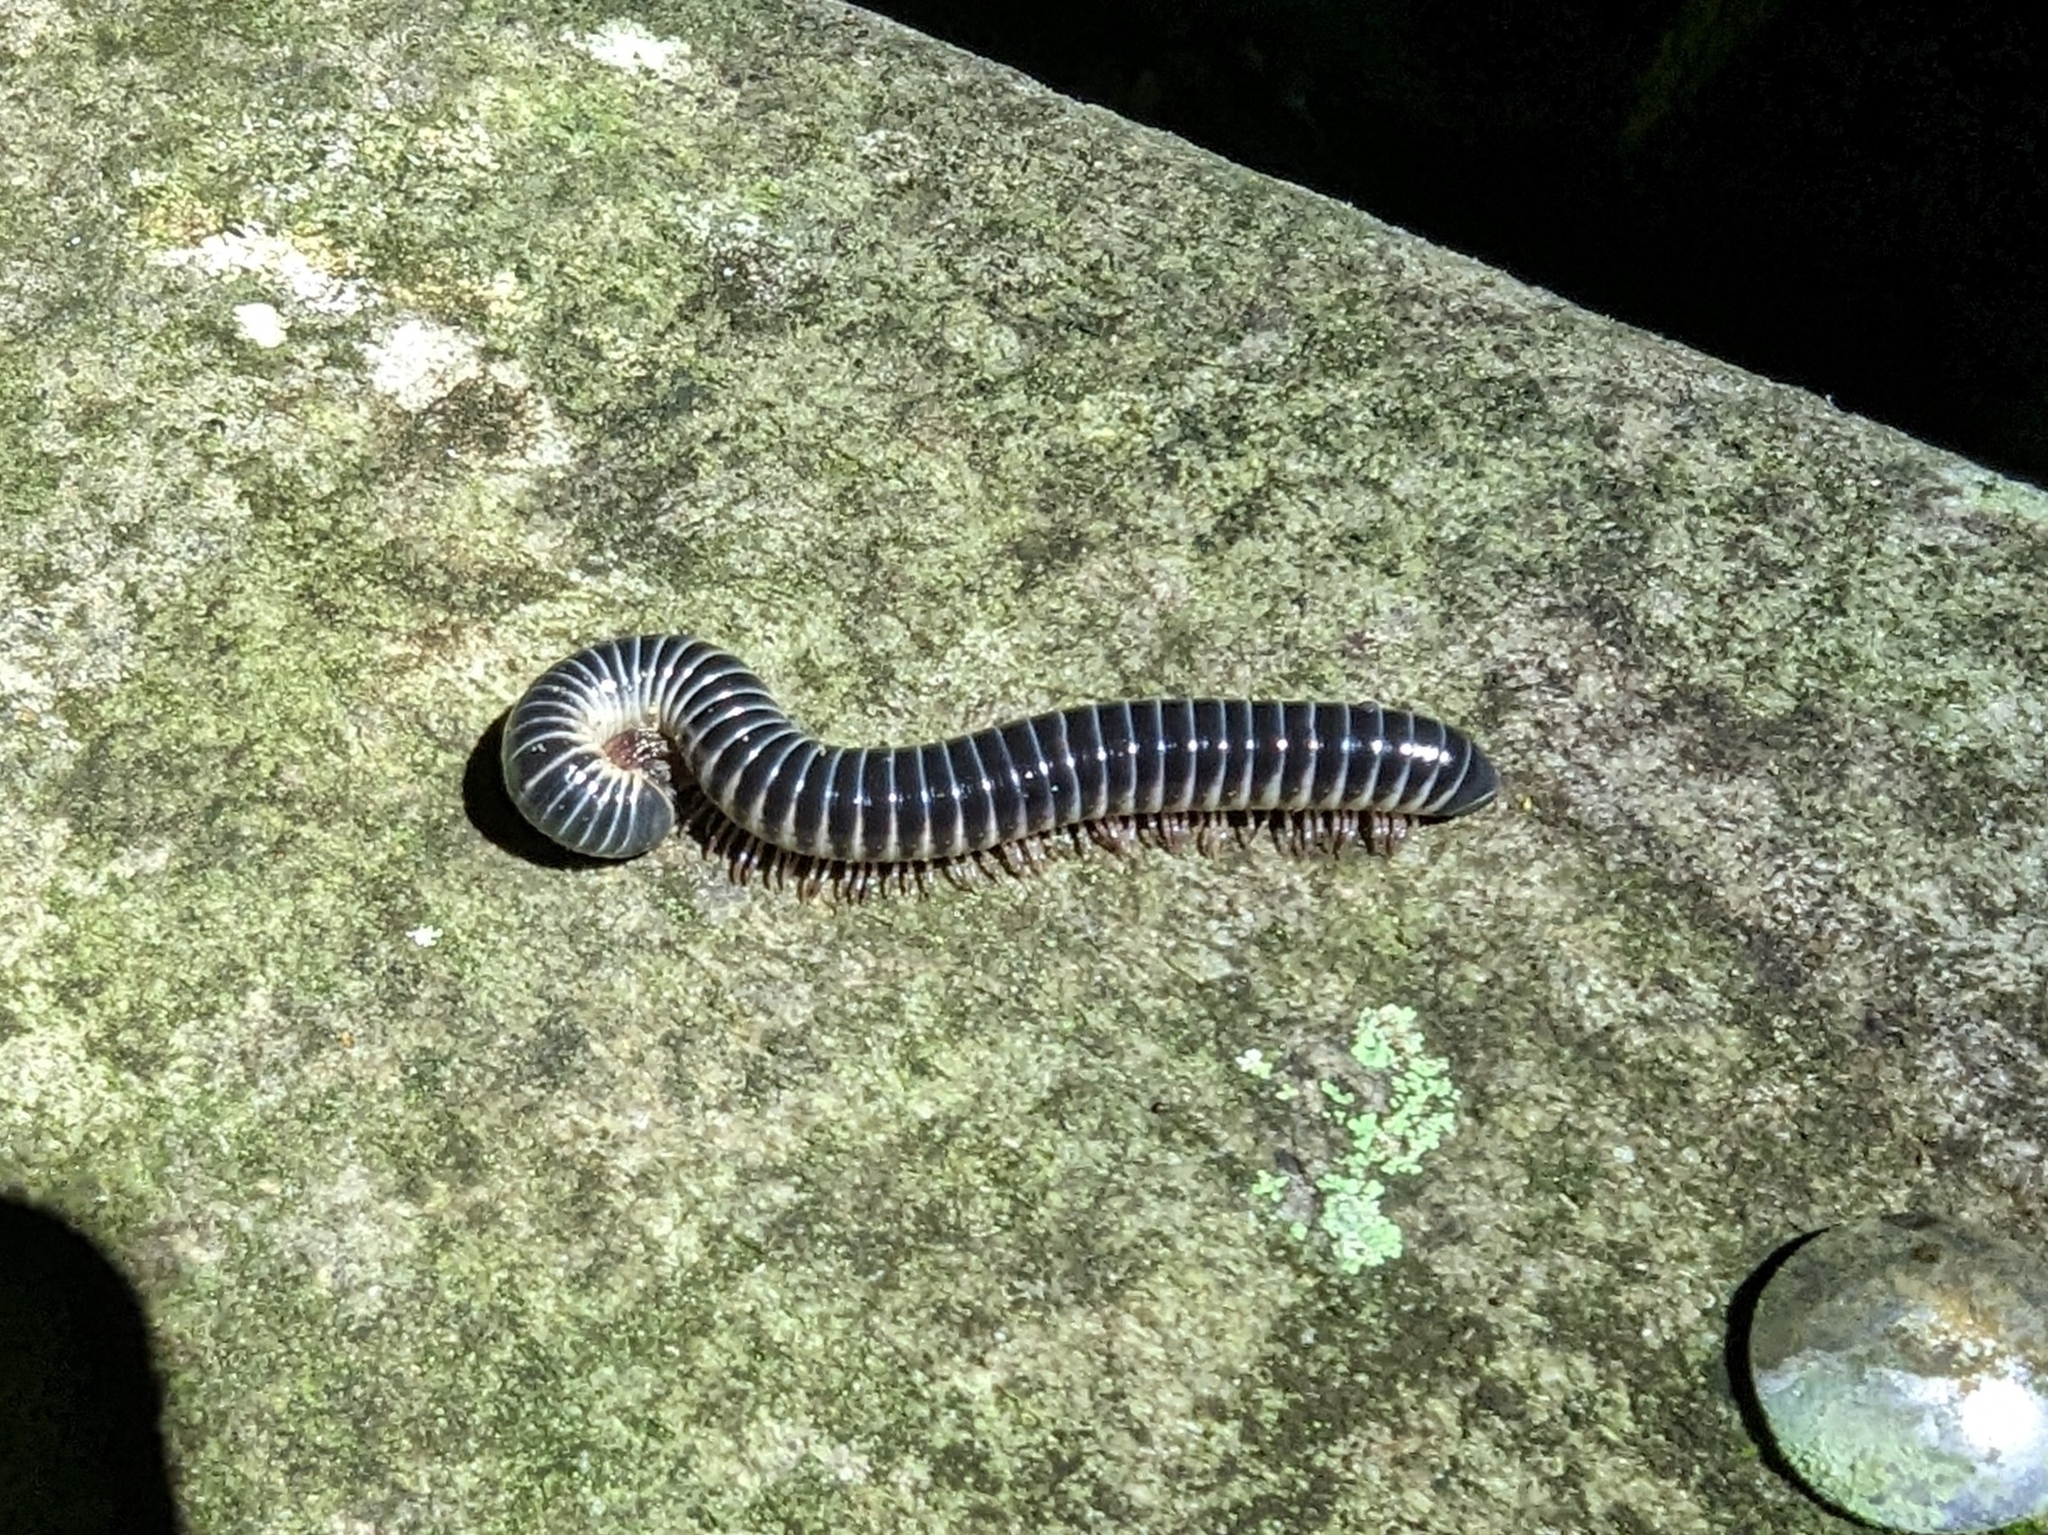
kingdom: Animalia
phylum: Arthropoda
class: Diplopoda
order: Spirobolida
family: Spirobolidae
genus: Chicobolus
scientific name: Chicobolus spinigerus
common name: Florida ivory millipede
